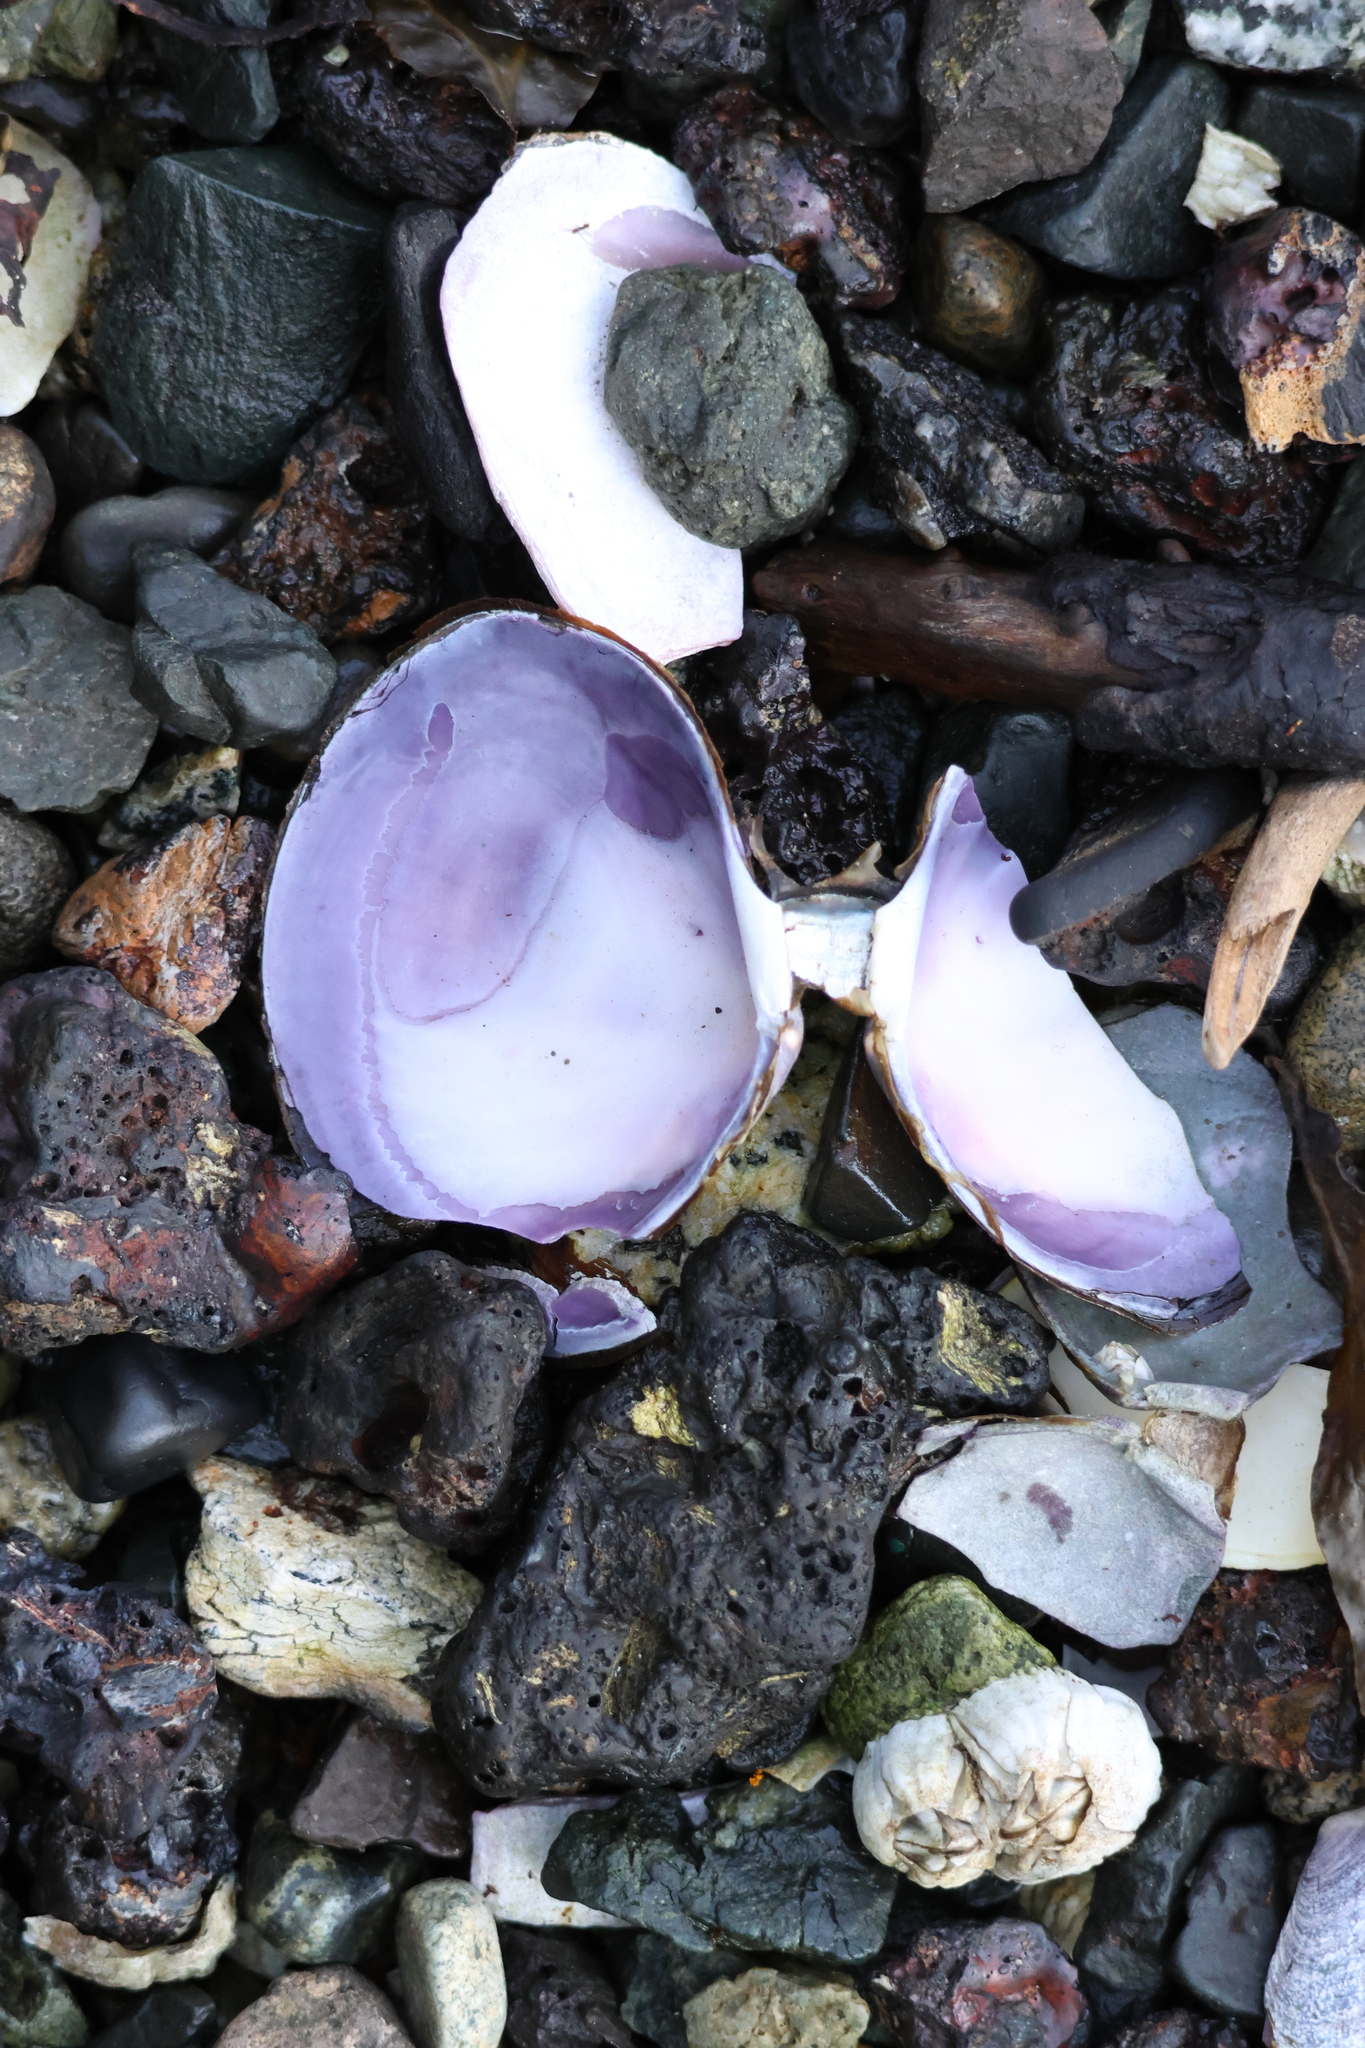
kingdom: Animalia
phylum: Mollusca
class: Bivalvia
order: Cardiida
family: Psammobiidae
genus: Nuttallia
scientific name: Nuttallia obscurata
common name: Purple mahogany-clam
